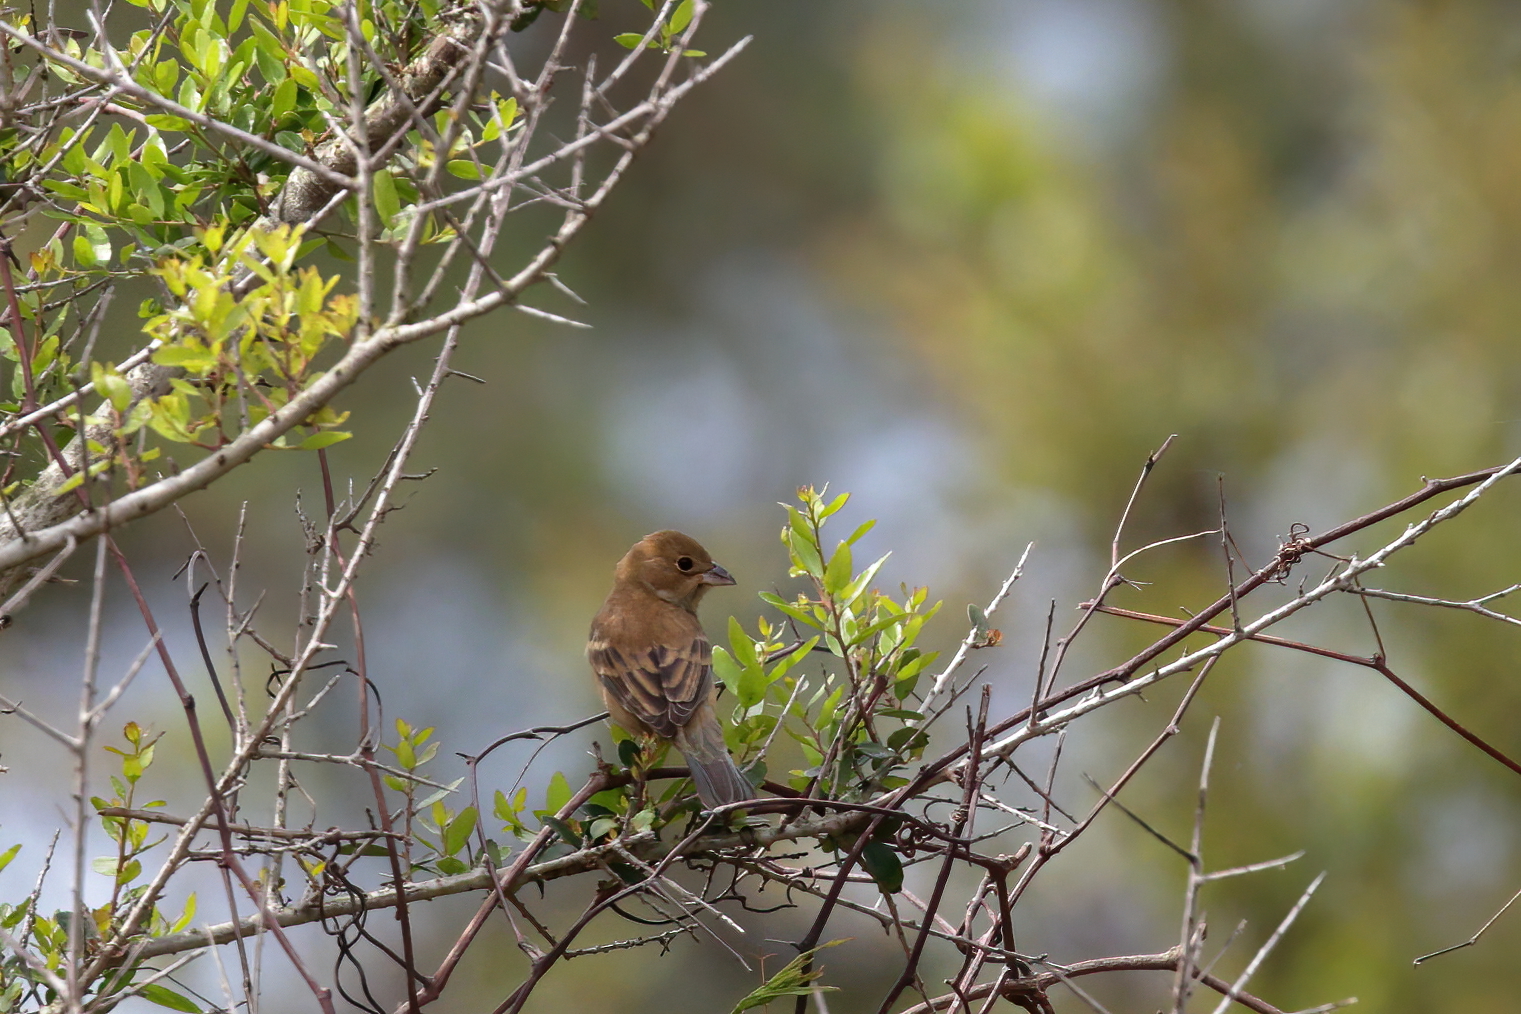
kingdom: Animalia
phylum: Chordata
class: Aves
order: Passeriformes
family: Cardinalidae
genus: Passerina
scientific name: Passerina cyanea
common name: Indigo bunting
